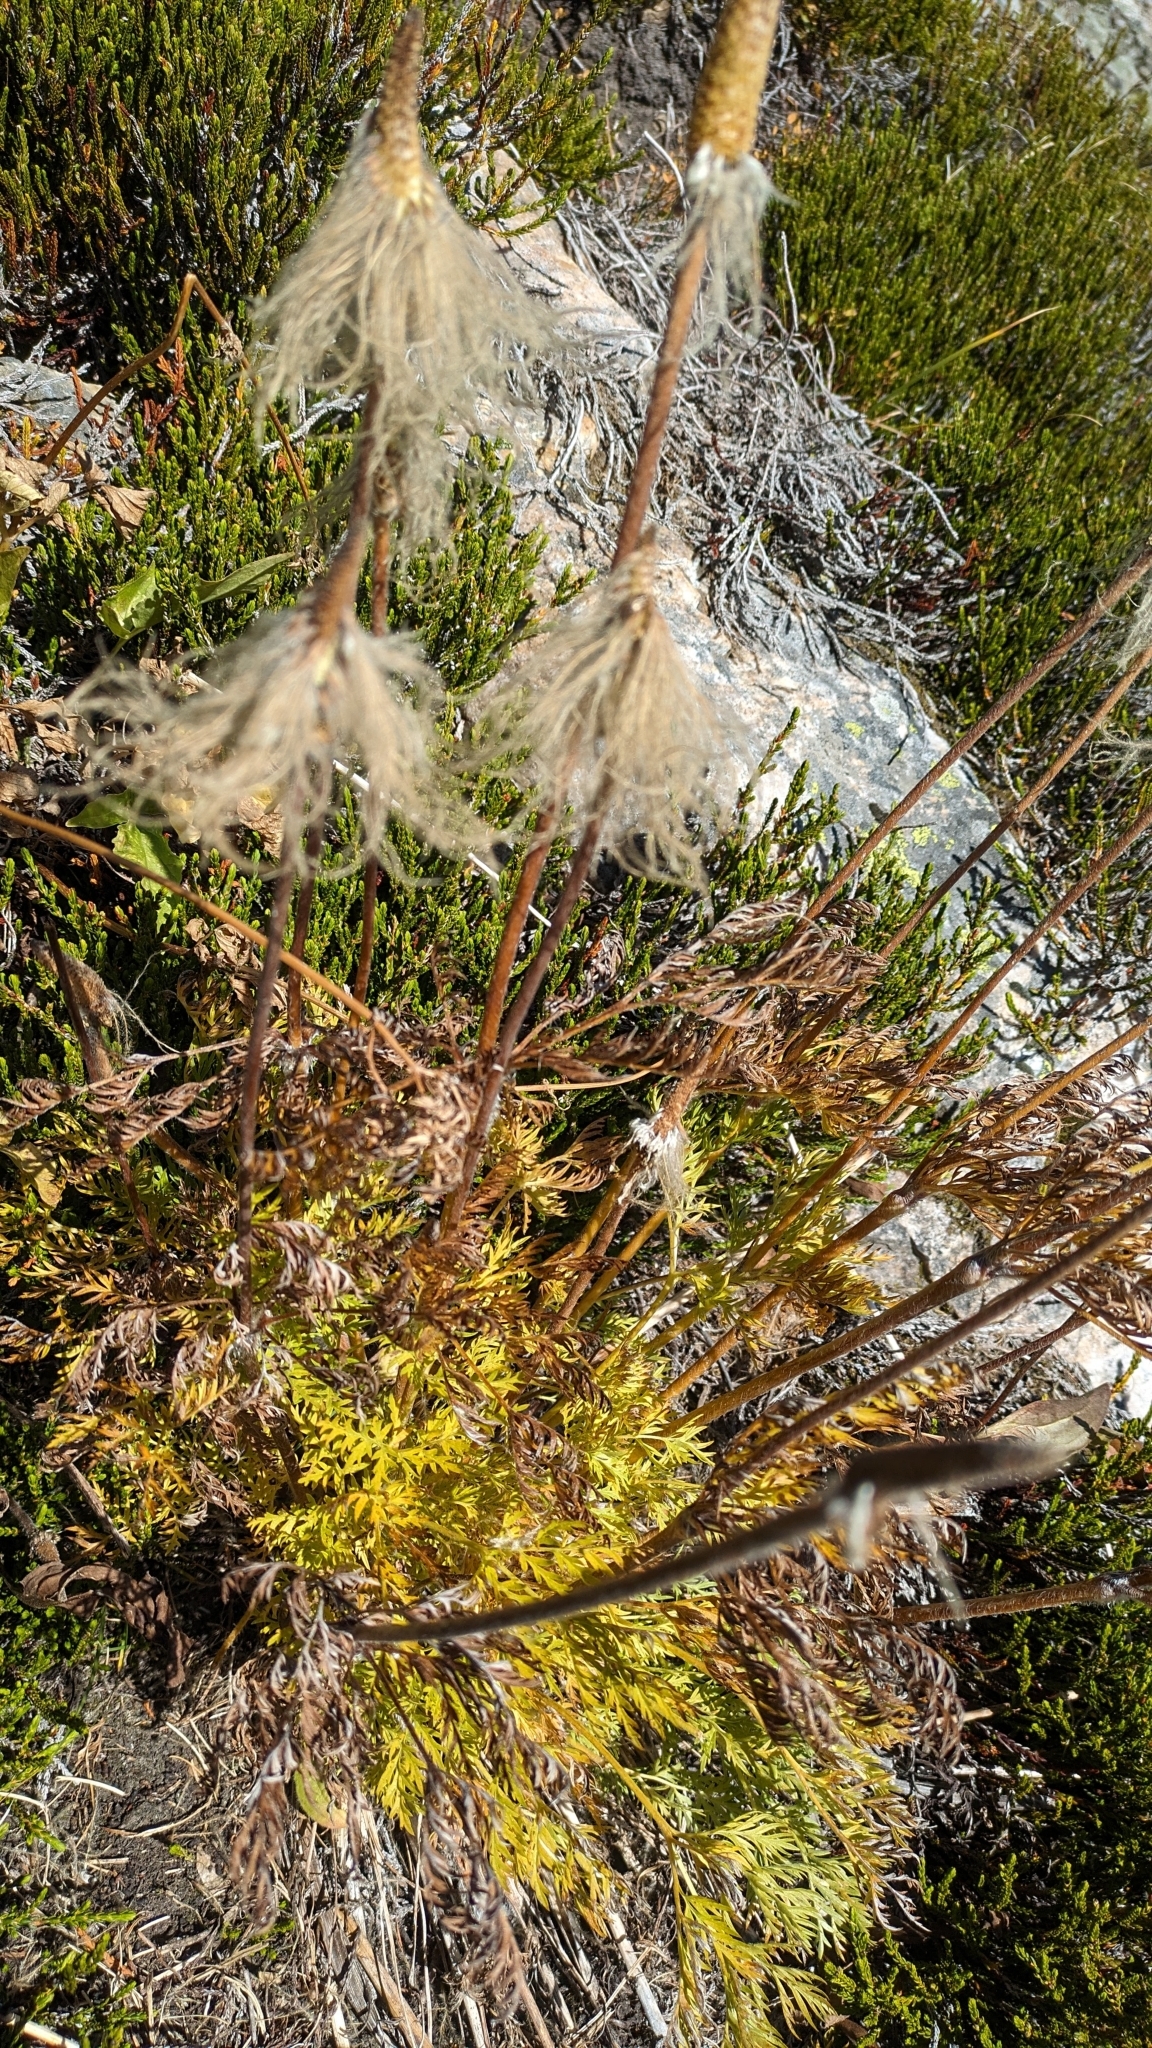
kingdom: Plantae
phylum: Tracheophyta
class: Magnoliopsida
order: Ranunculales
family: Ranunculaceae
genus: Pulsatilla
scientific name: Pulsatilla occidentalis
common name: Mountain pasqueflower
